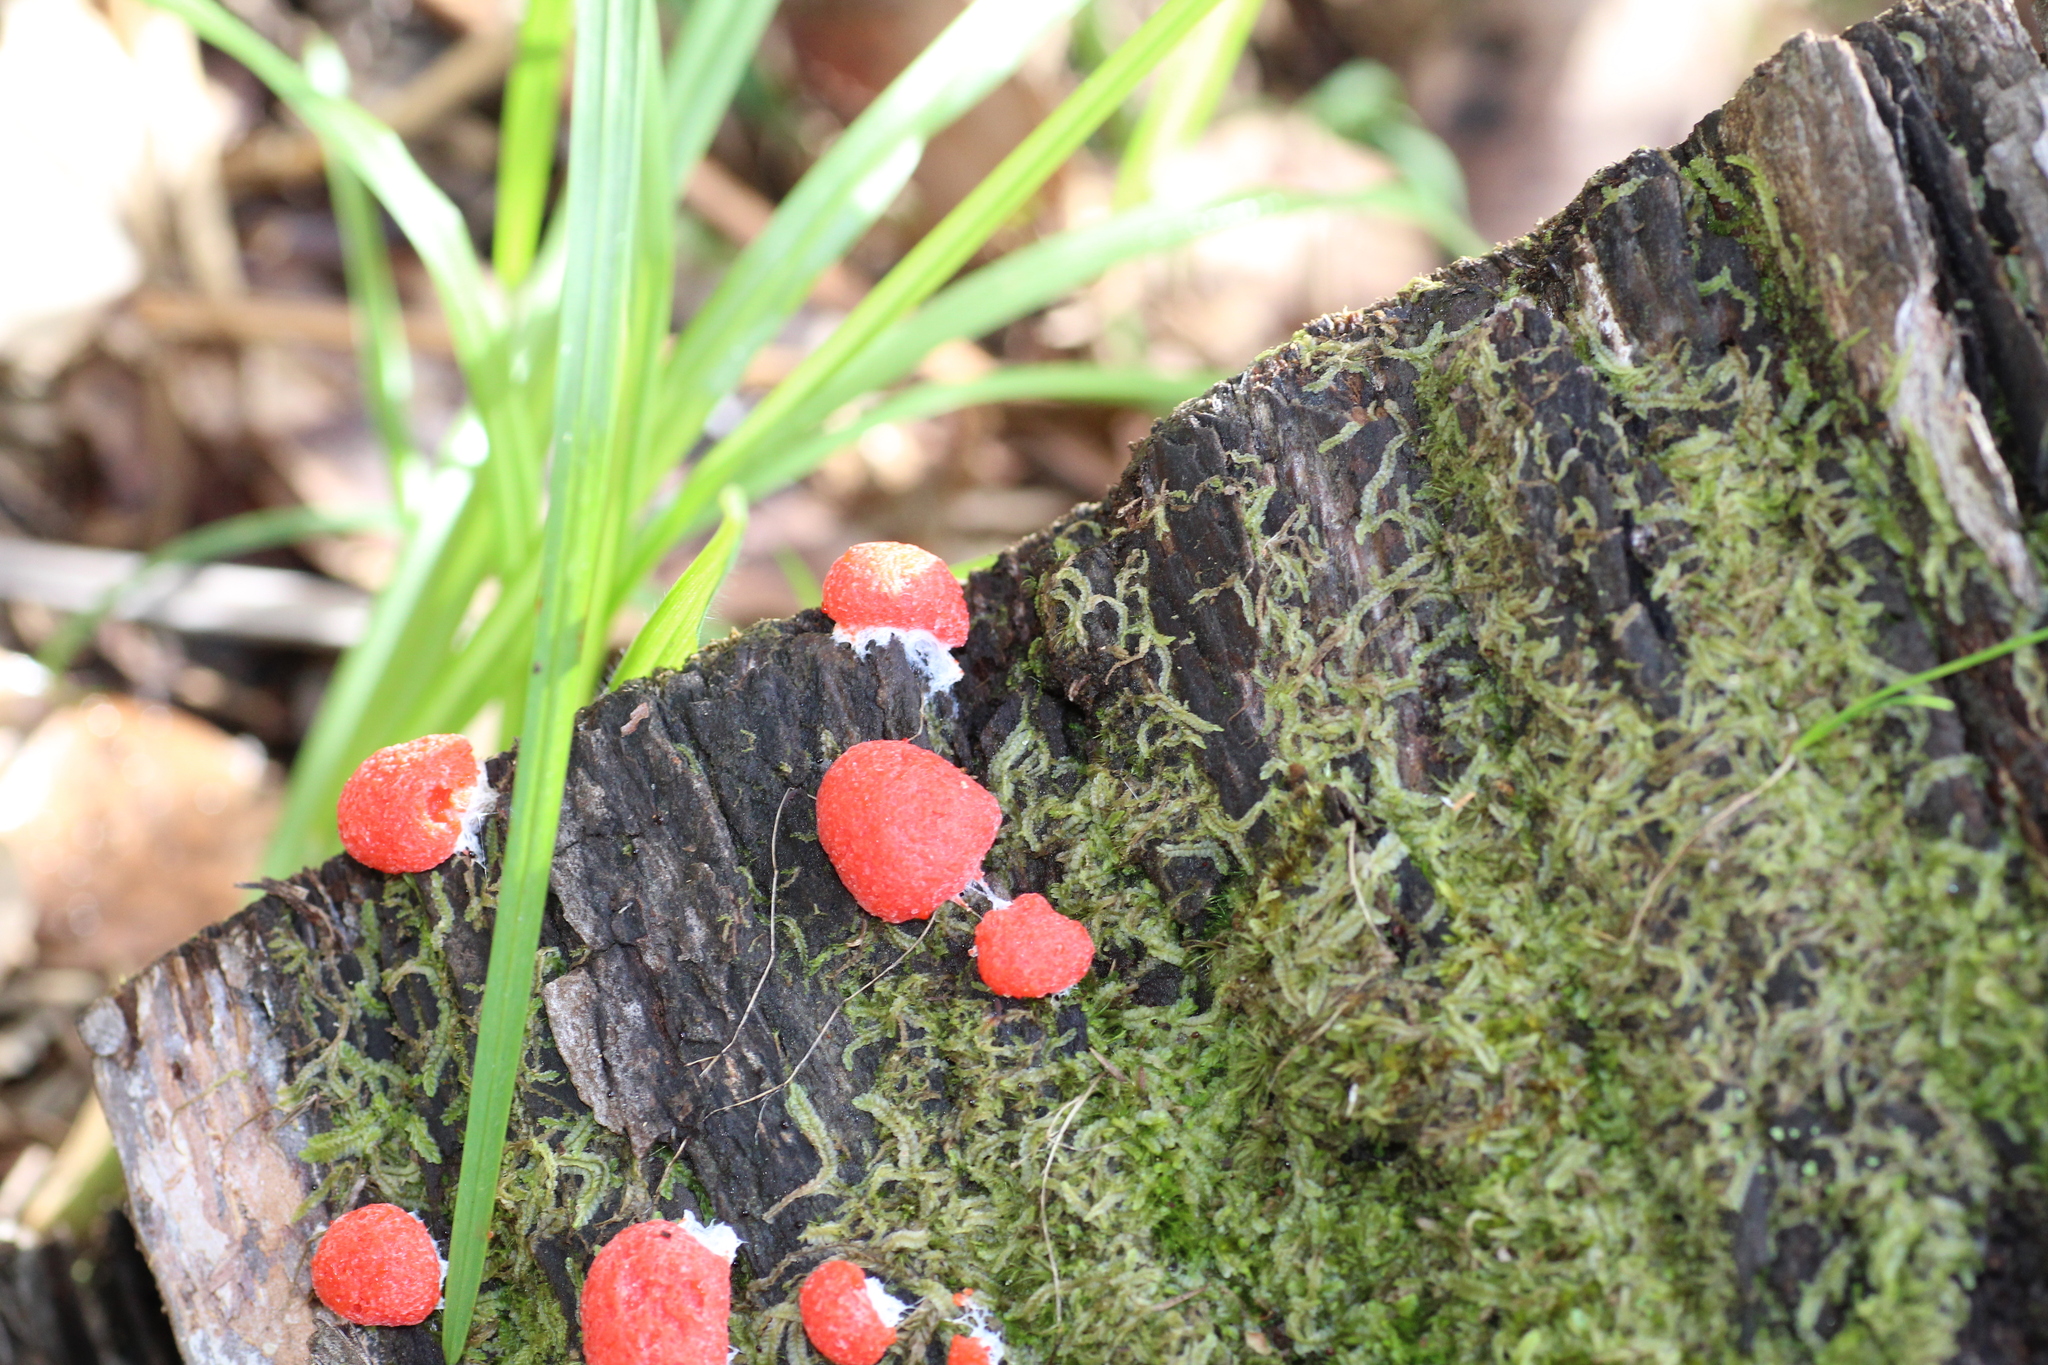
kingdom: Protozoa
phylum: Mycetozoa
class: Myxomycetes
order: Cribrariales
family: Tubiferaceae
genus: Tubifera
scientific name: Tubifera ferruginosa
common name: Red raspberry slime mold
